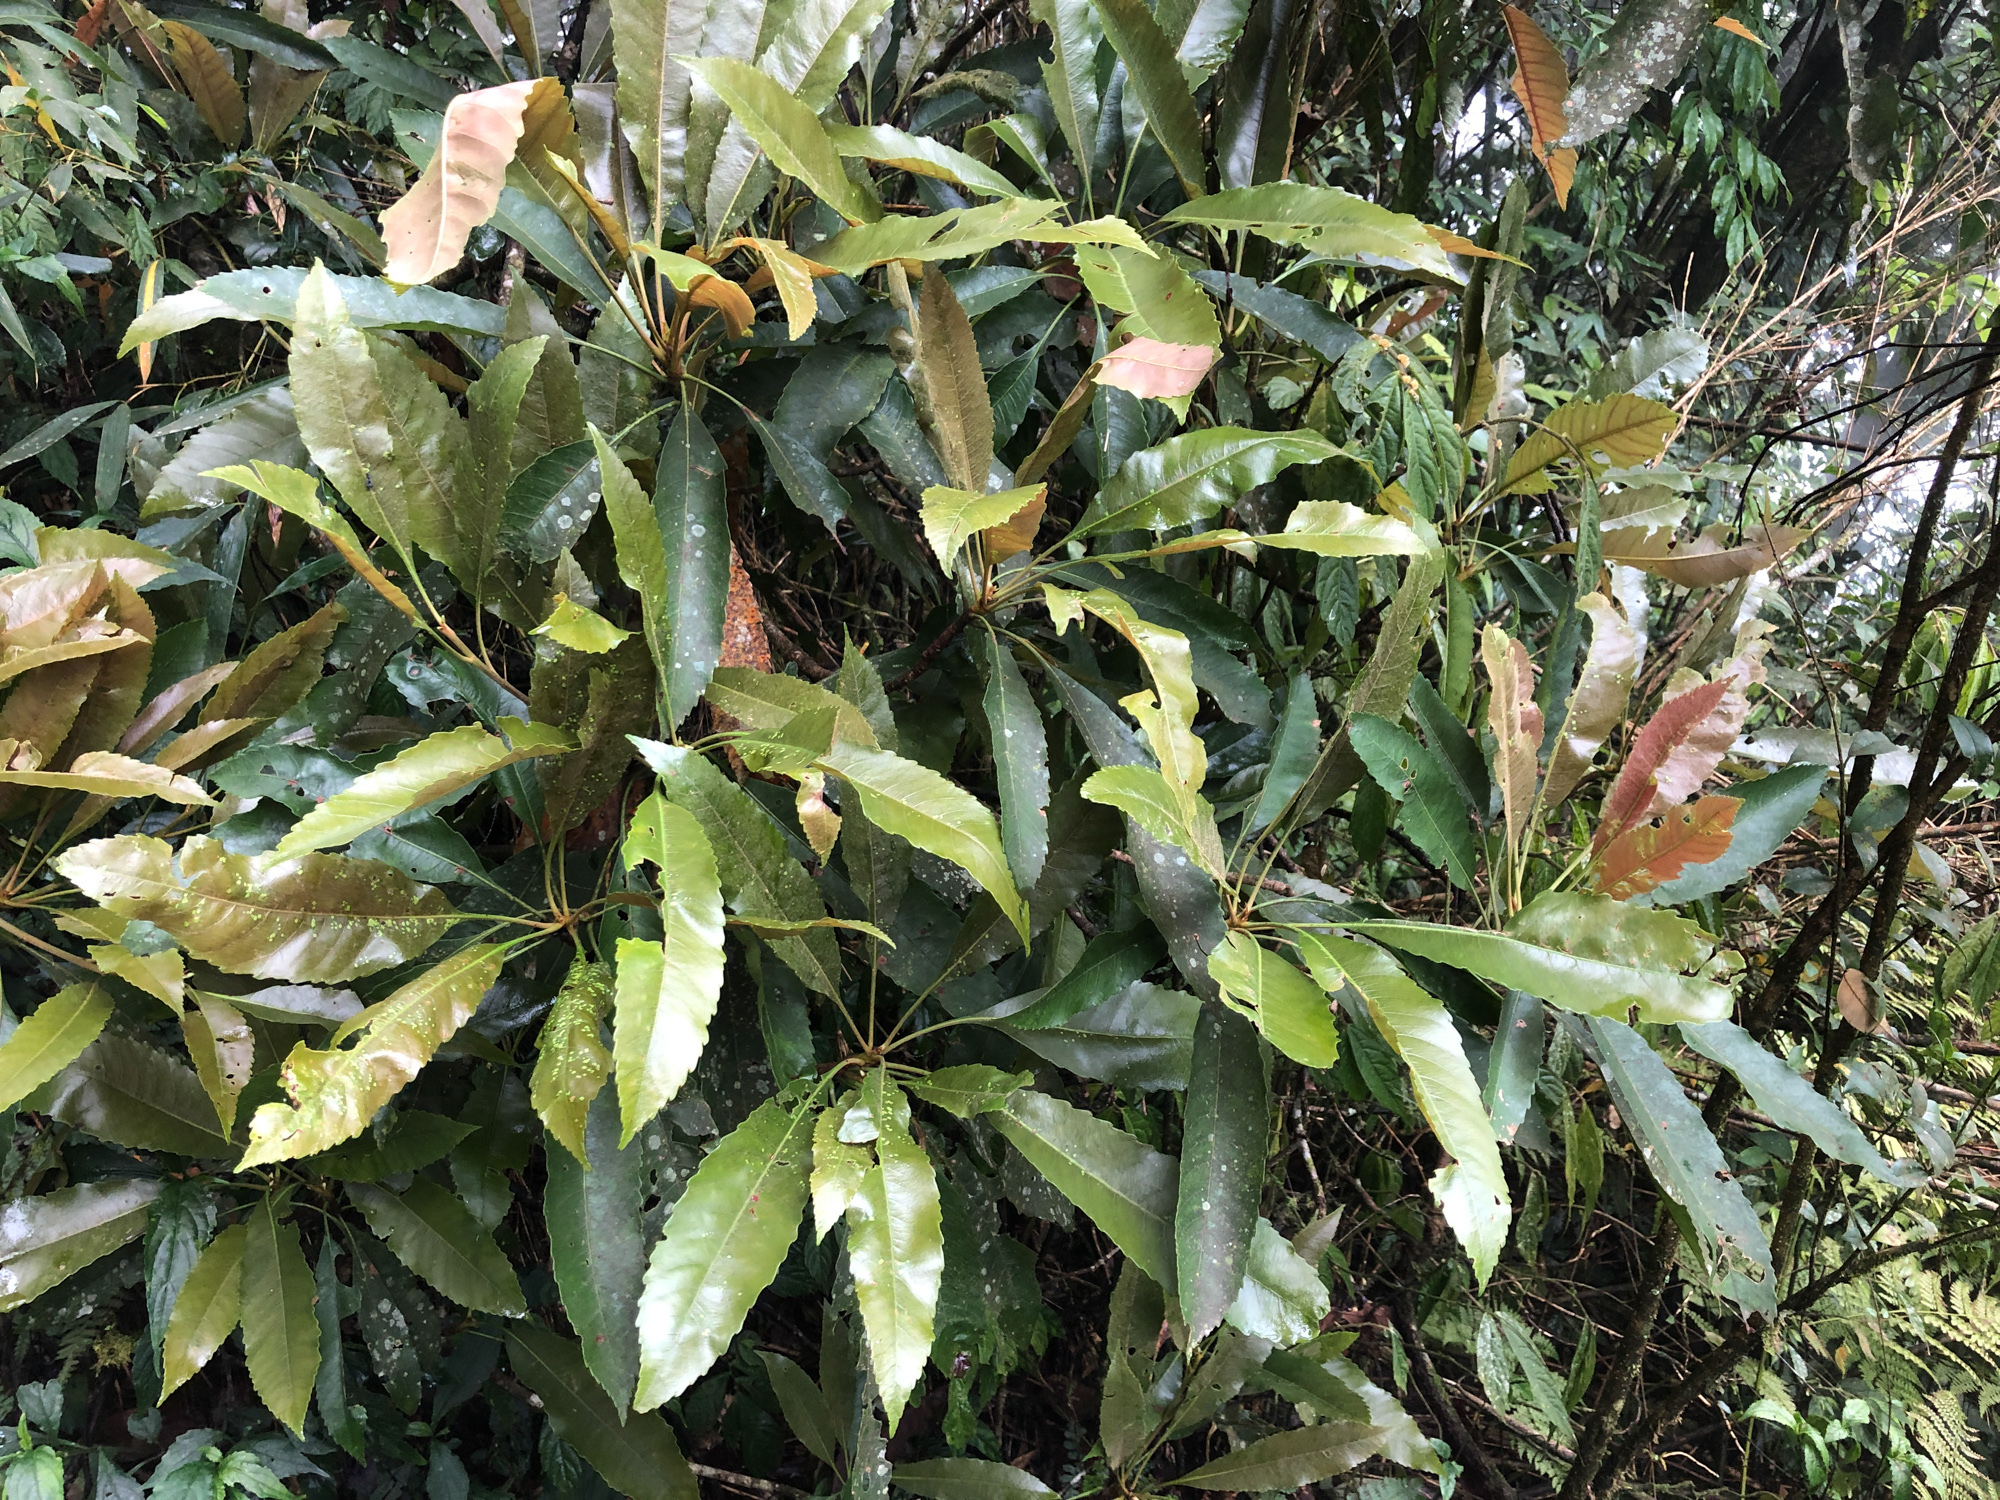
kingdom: Plantae
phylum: Tracheophyta
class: Magnoliopsida
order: Rosales
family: Rosaceae
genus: Rhaphiolepis
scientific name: Rhaphiolepis deflexa
